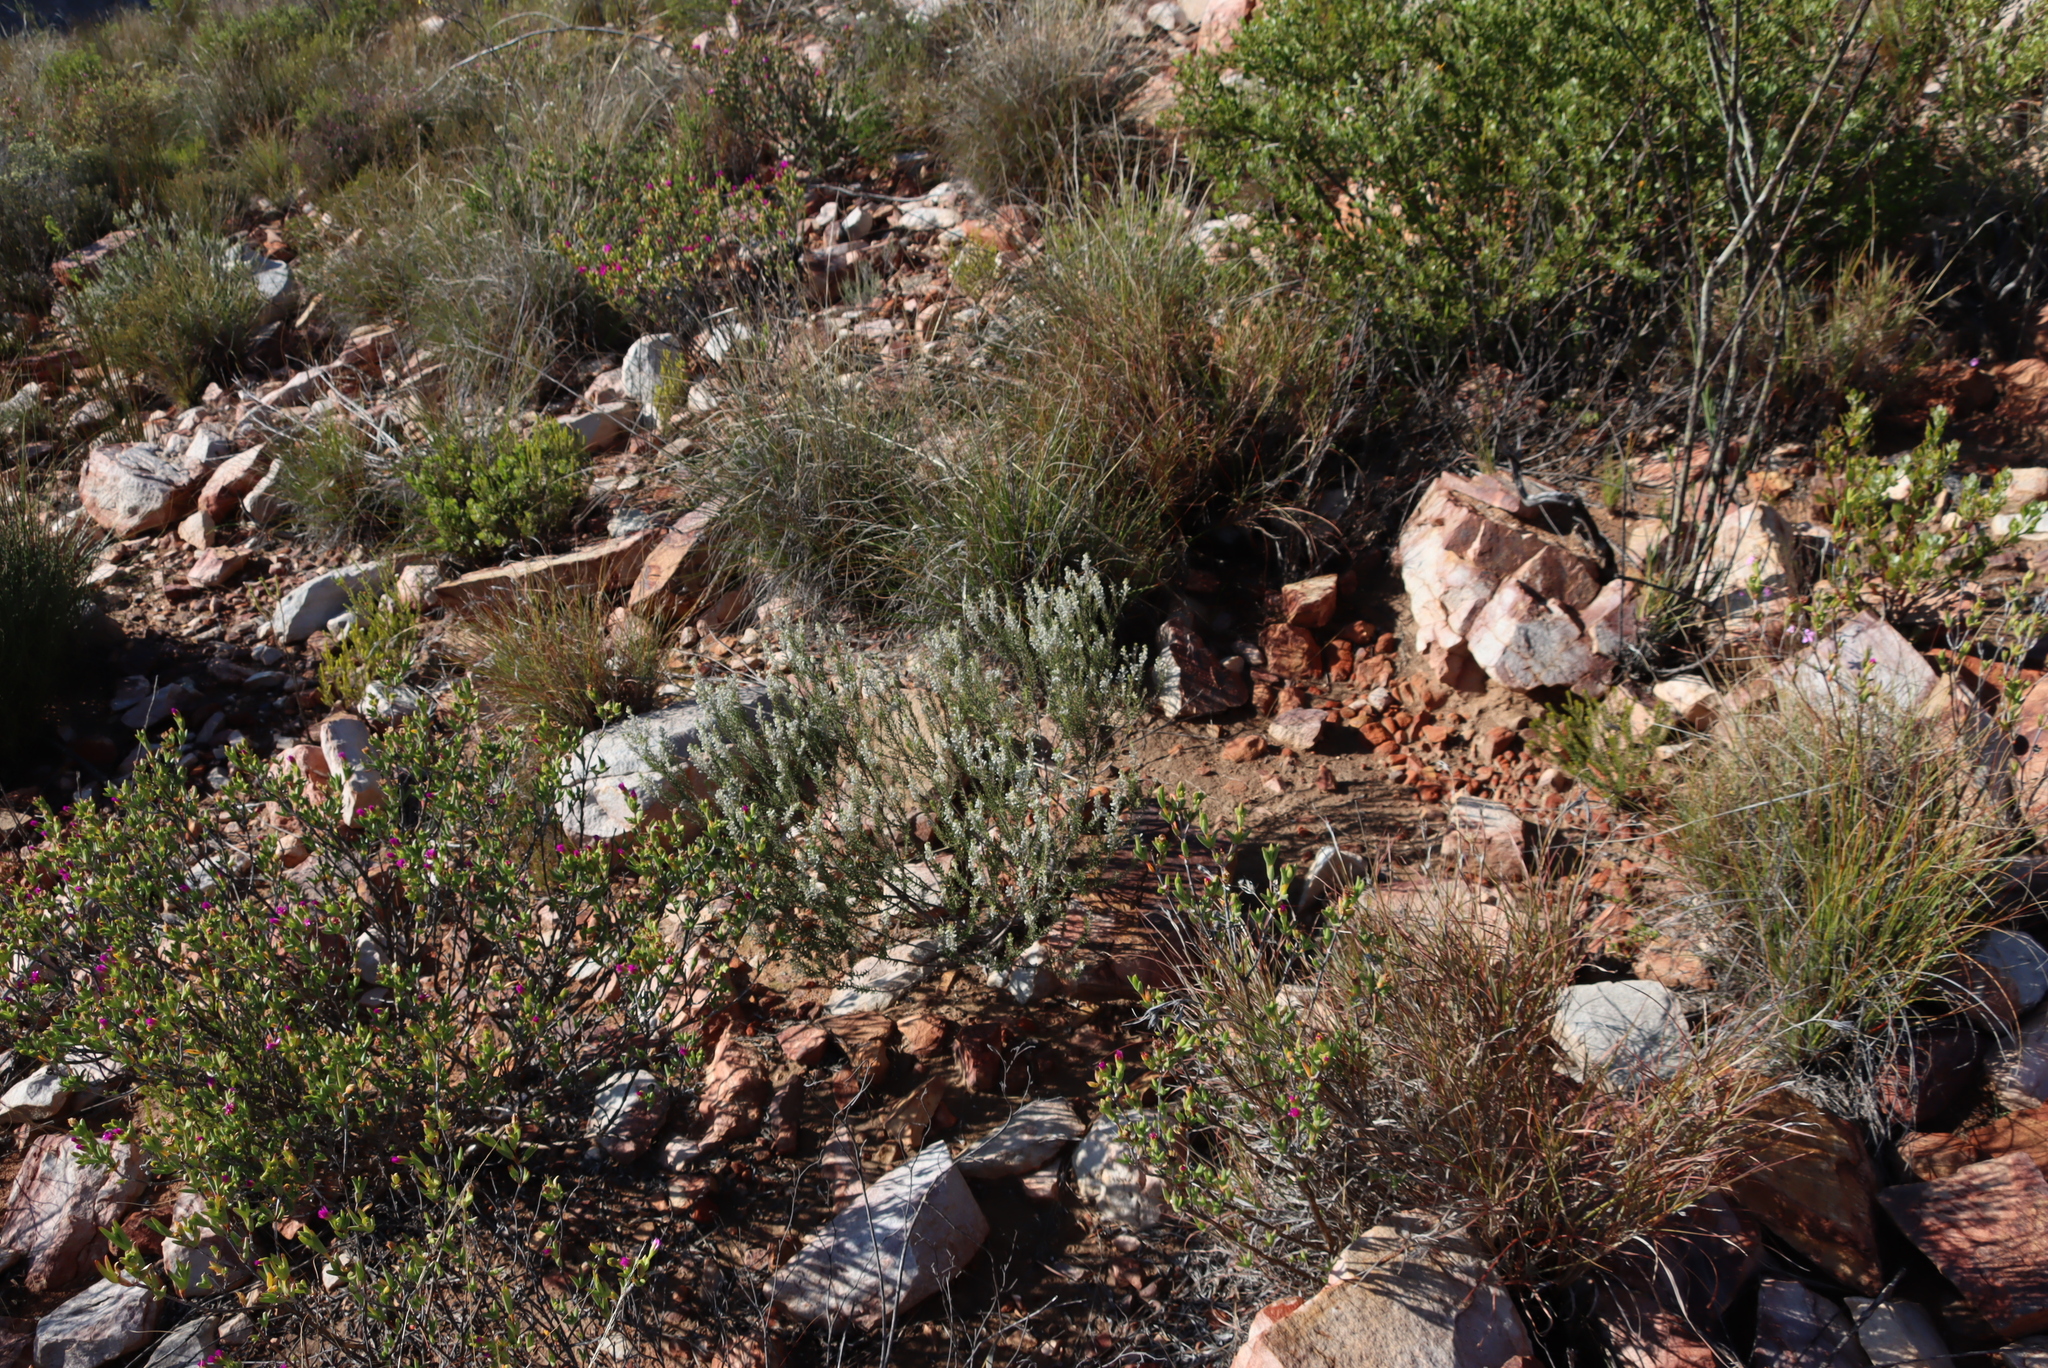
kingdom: Plantae
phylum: Tracheophyta
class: Magnoliopsida
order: Rosales
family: Rhamnaceae
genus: Phylica
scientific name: Phylica axillaris
